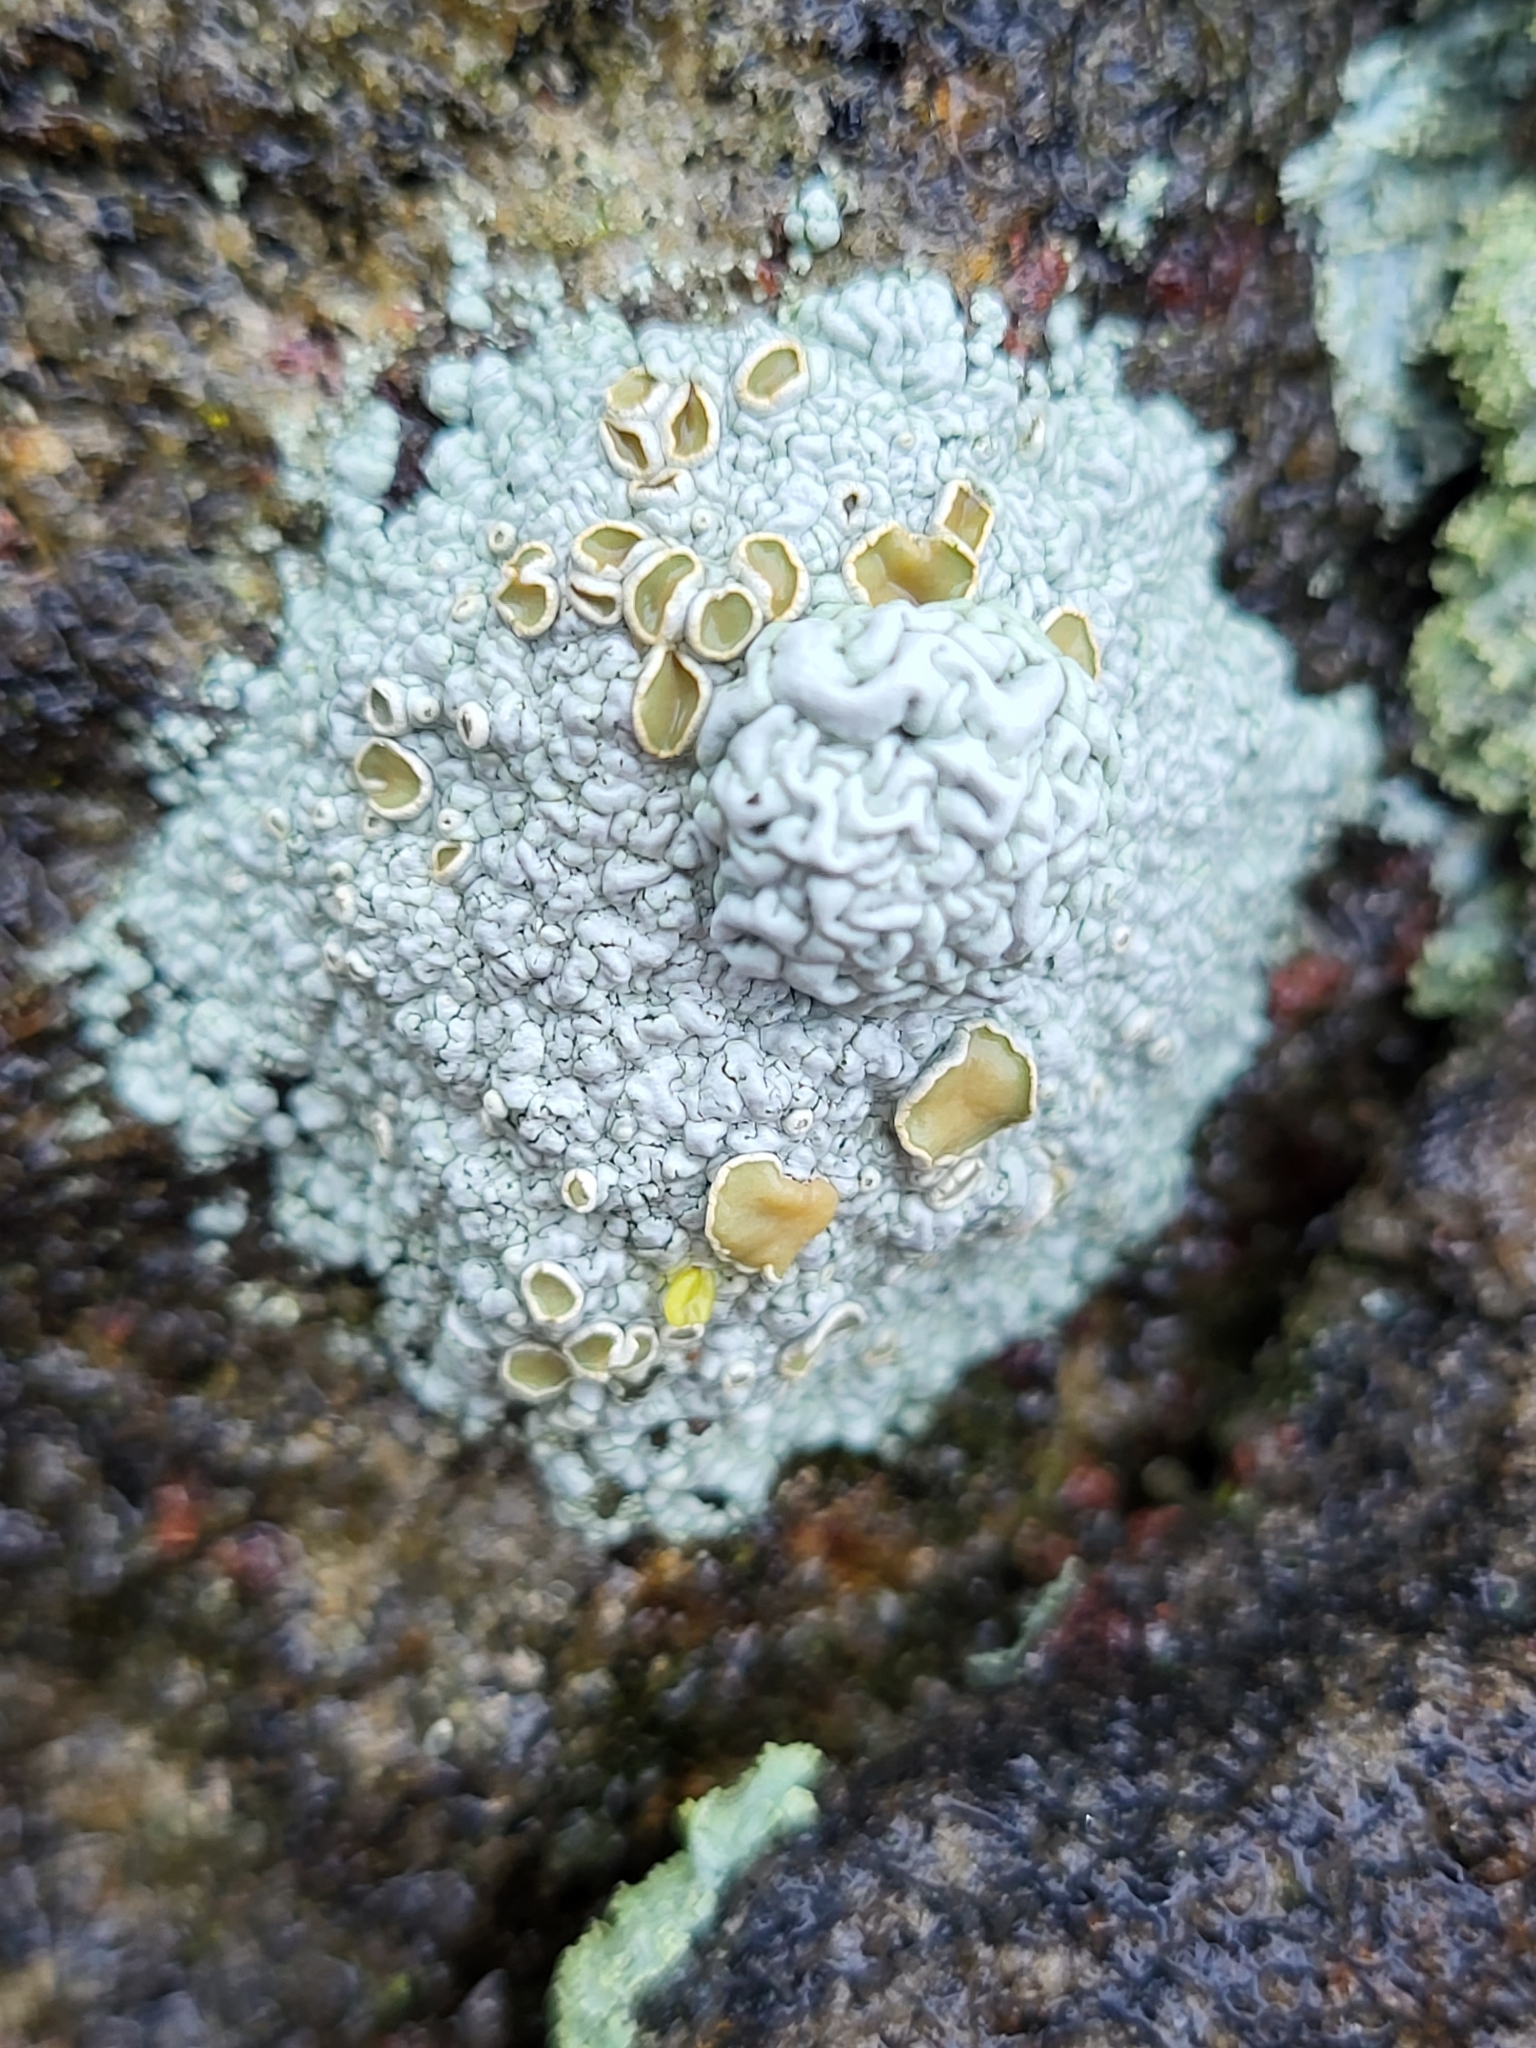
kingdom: Fungi
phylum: Ascomycota
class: Lecanoromycetes
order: Lecanorales
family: Lecanoraceae
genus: Sedelnikovaea
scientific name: Sedelnikovaea subdiscrepans
